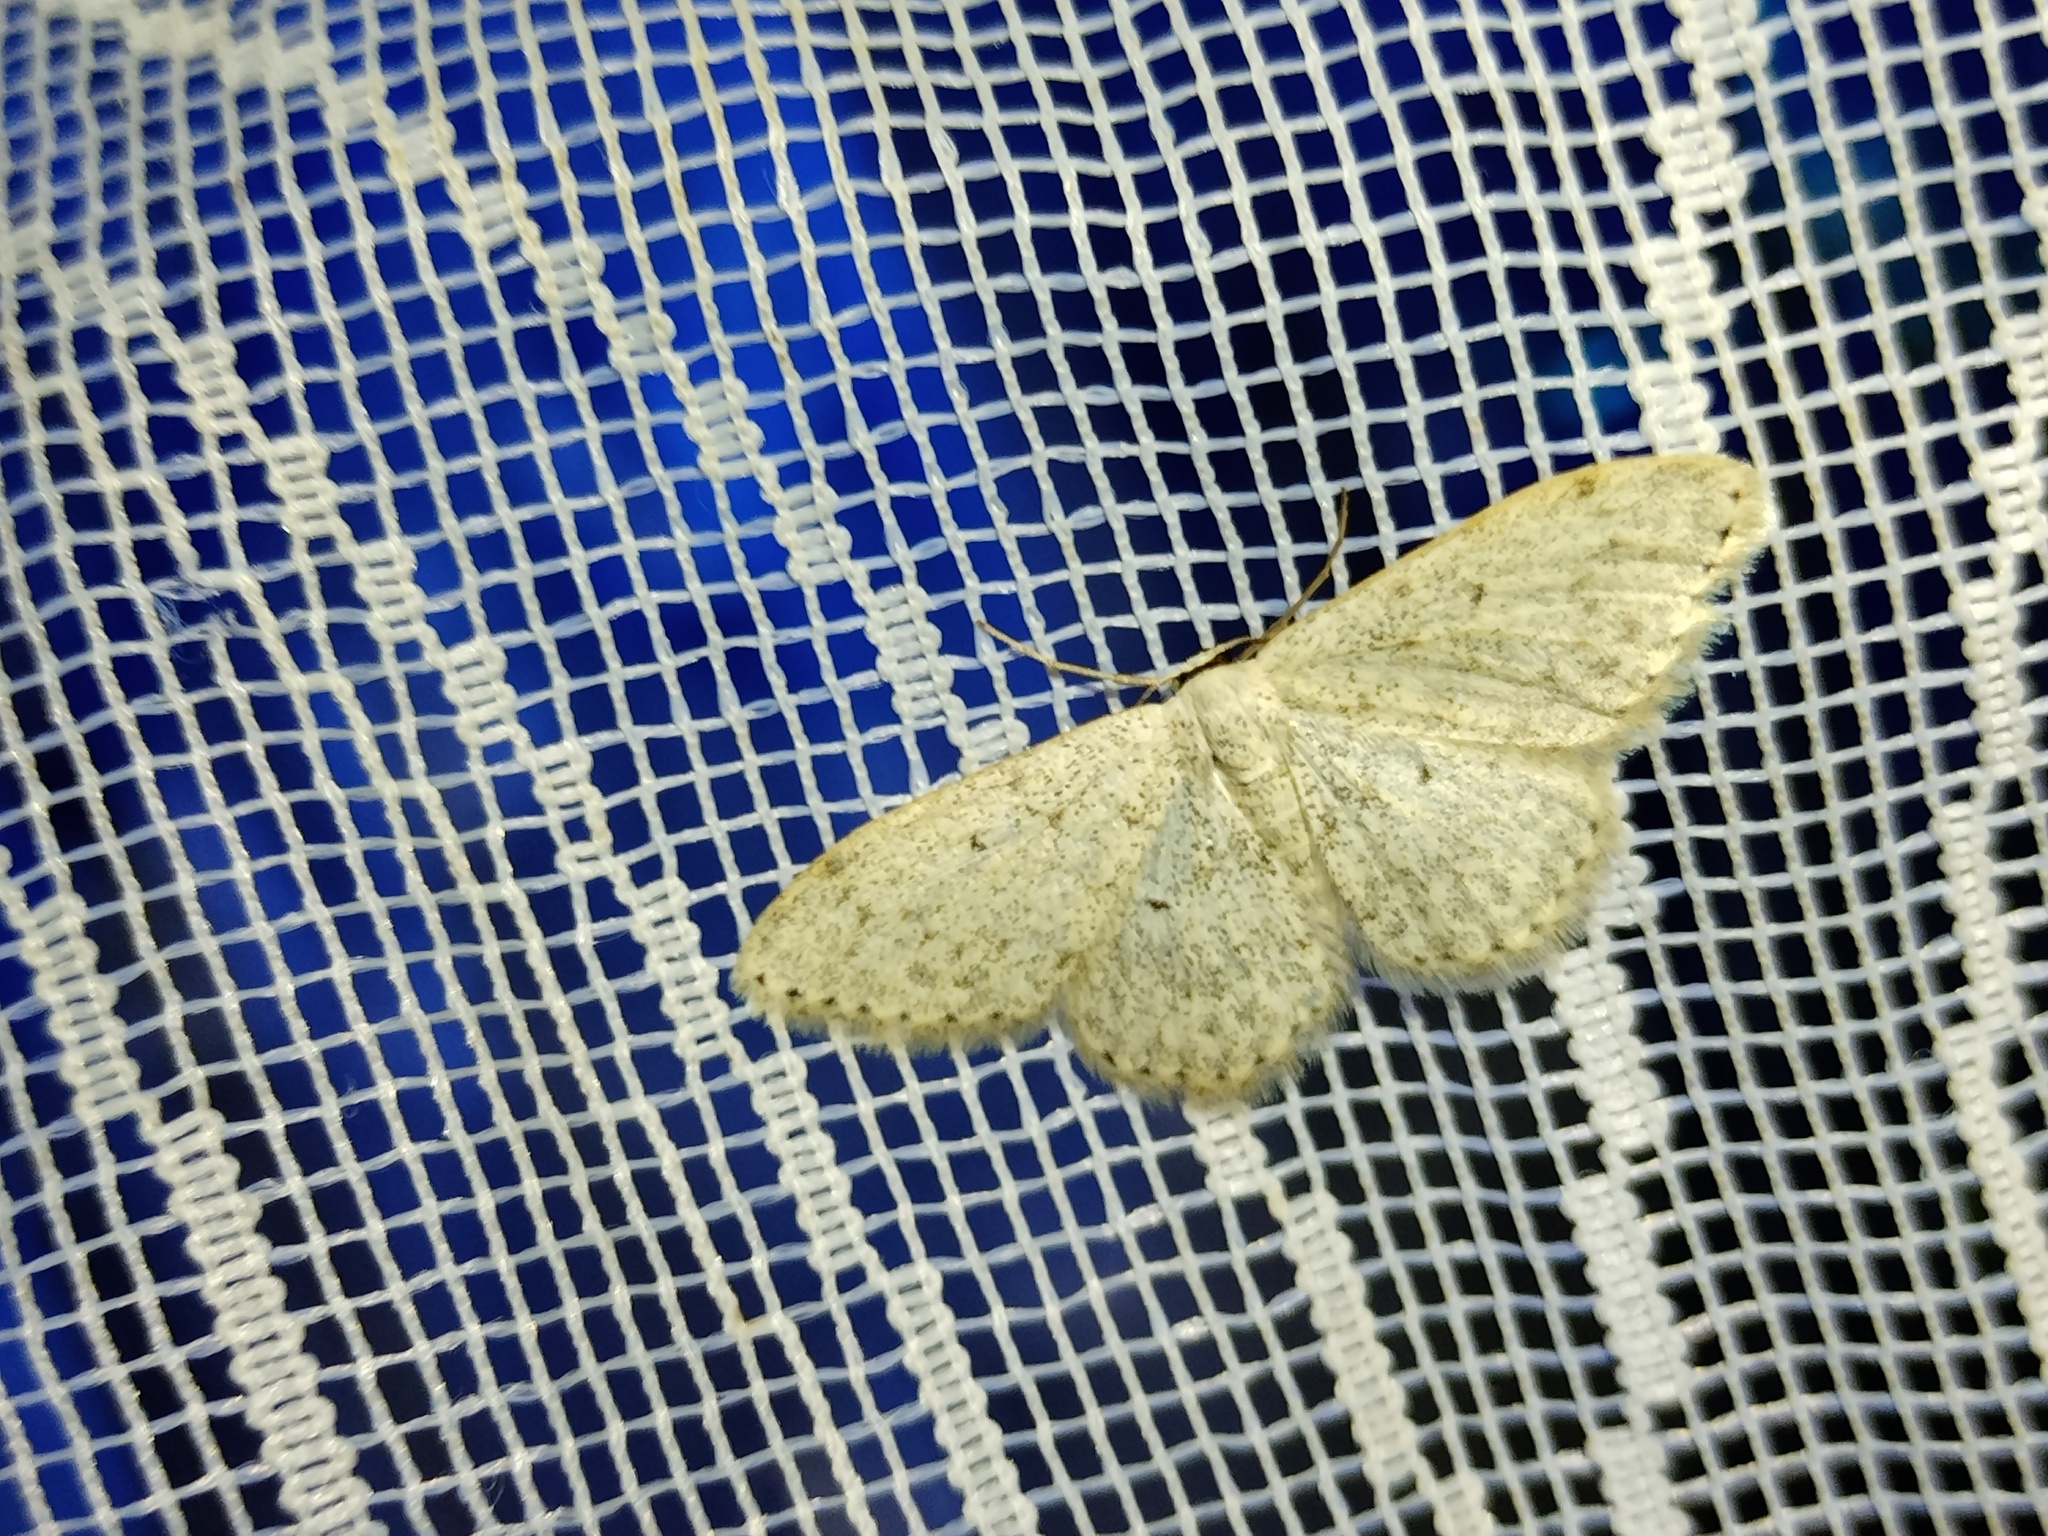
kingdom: Animalia
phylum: Arthropoda
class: Insecta
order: Lepidoptera
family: Geometridae
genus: Scopula
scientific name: Scopula marginepunctata
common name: Mullein wave
